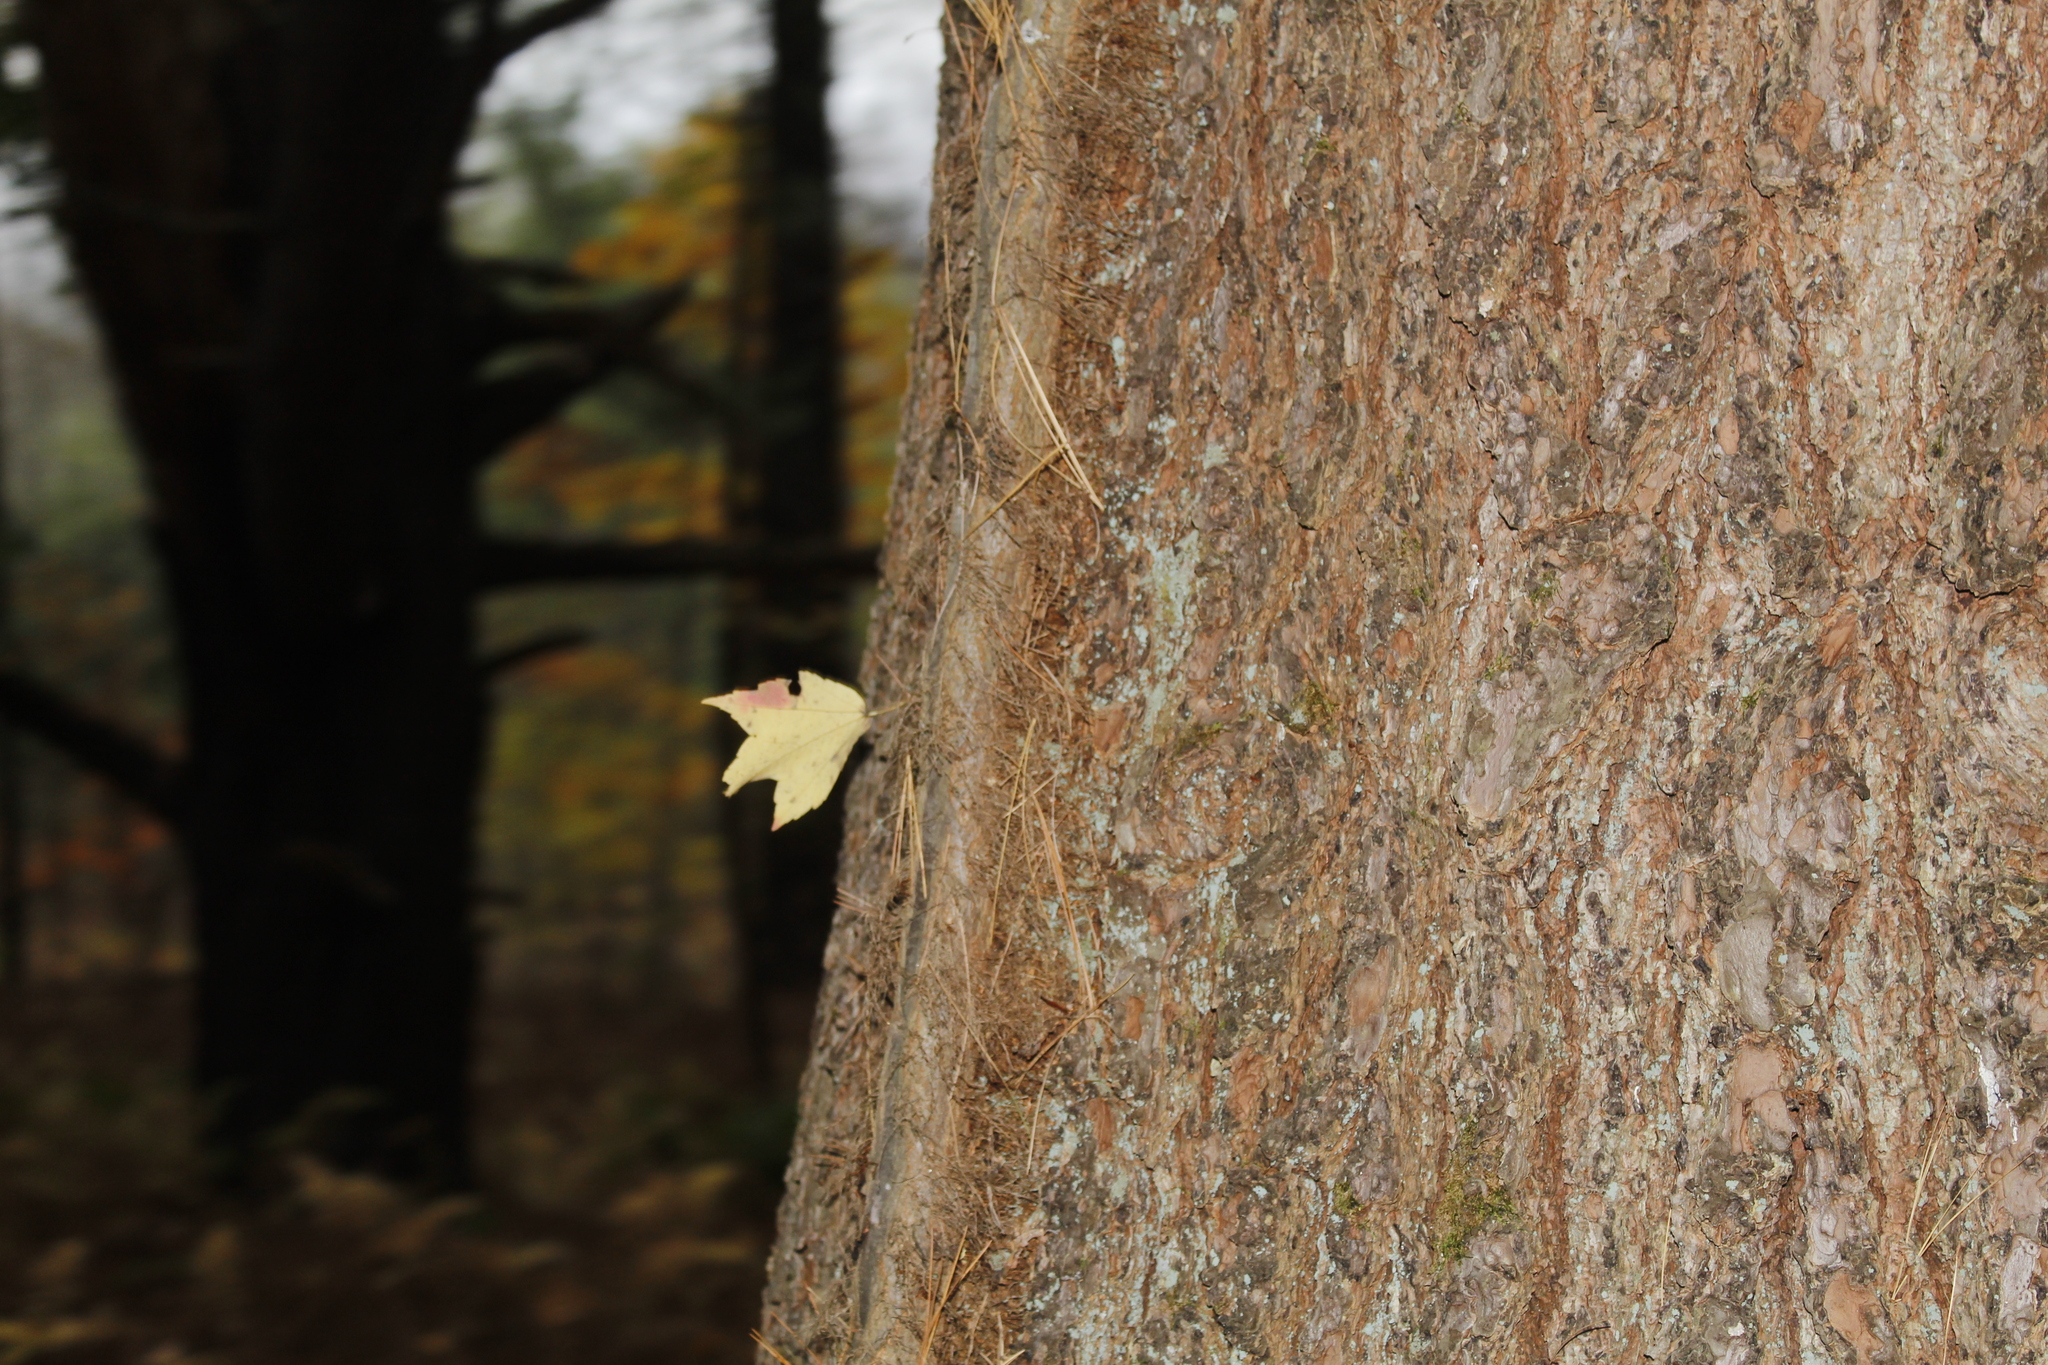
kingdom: Plantae
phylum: Tracheophyta
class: Magnoliopsida
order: Sapindales
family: Anacardiaceae
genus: Toxicodendron
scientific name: Toxicodendron radicans
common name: Poison ivy
